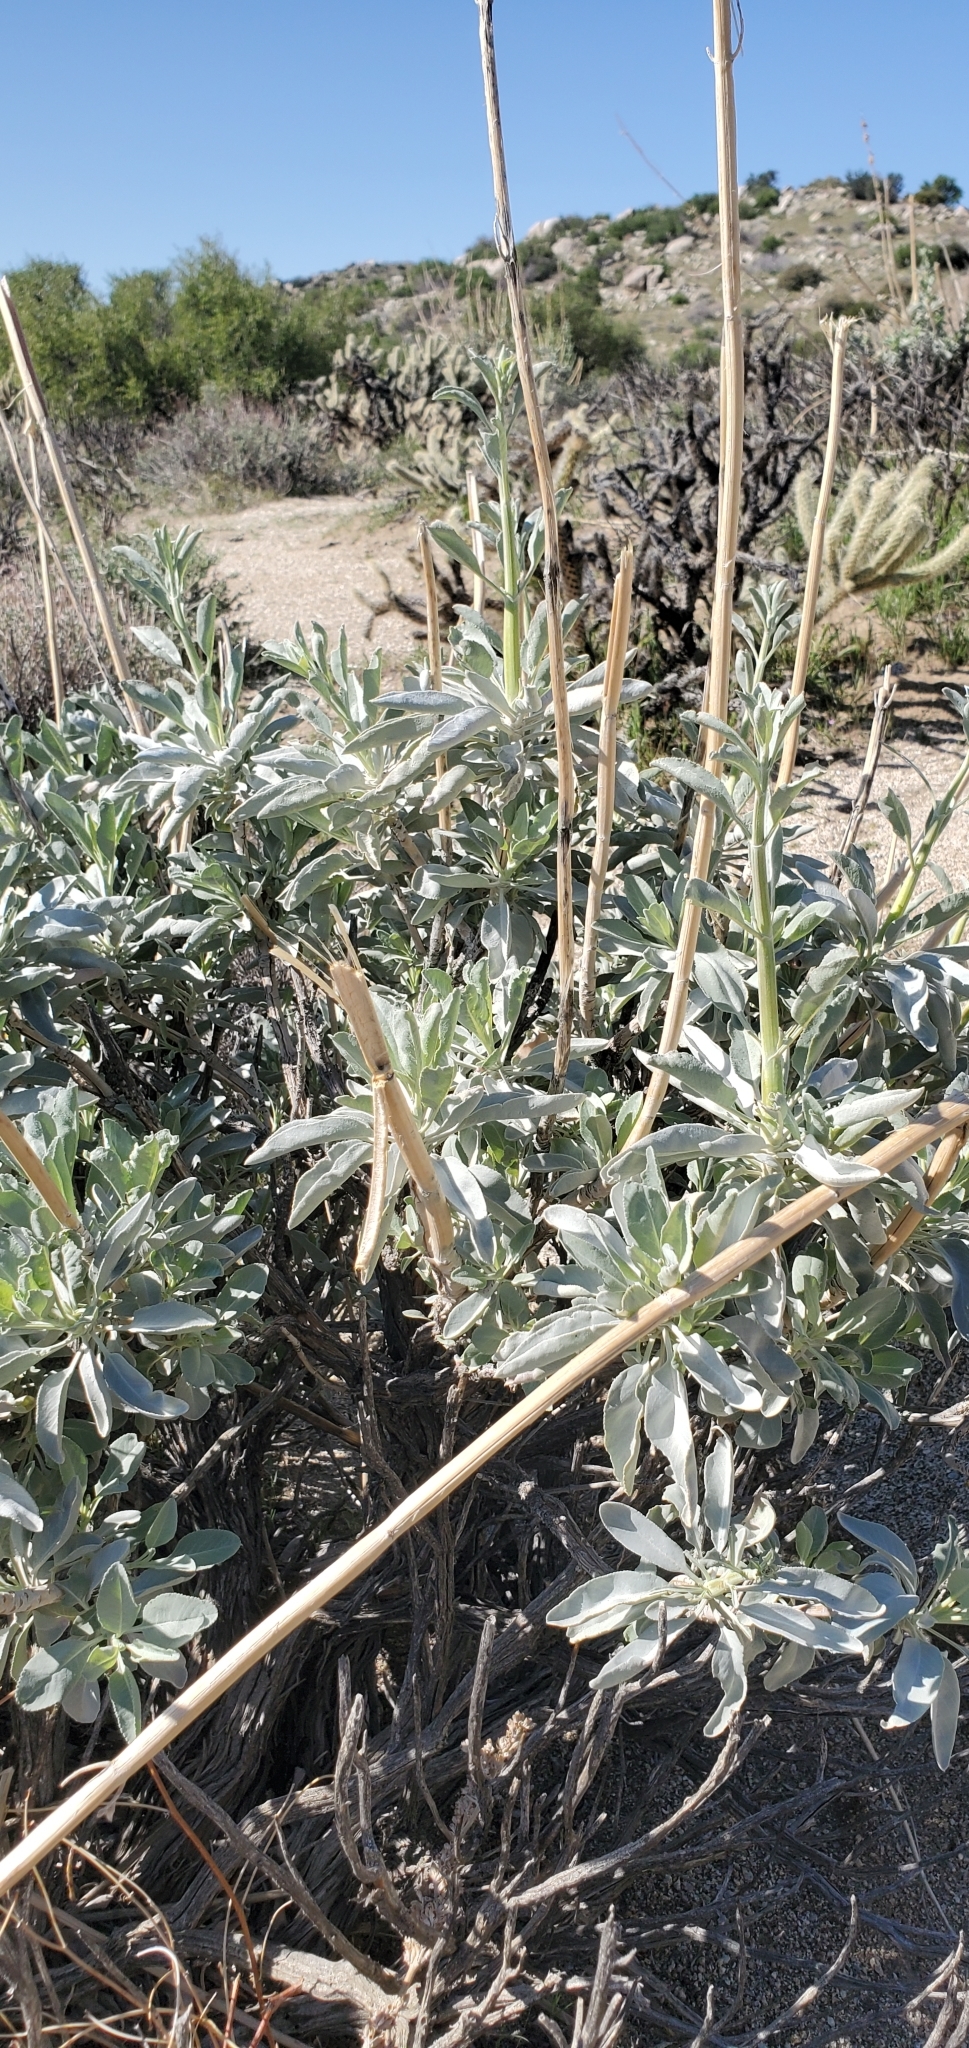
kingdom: Plantae
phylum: Tracheophyta
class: Magnoliopsida
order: Lamiales
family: Lamiaceae
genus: Salvia
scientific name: Salvia apiana
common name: White sage
